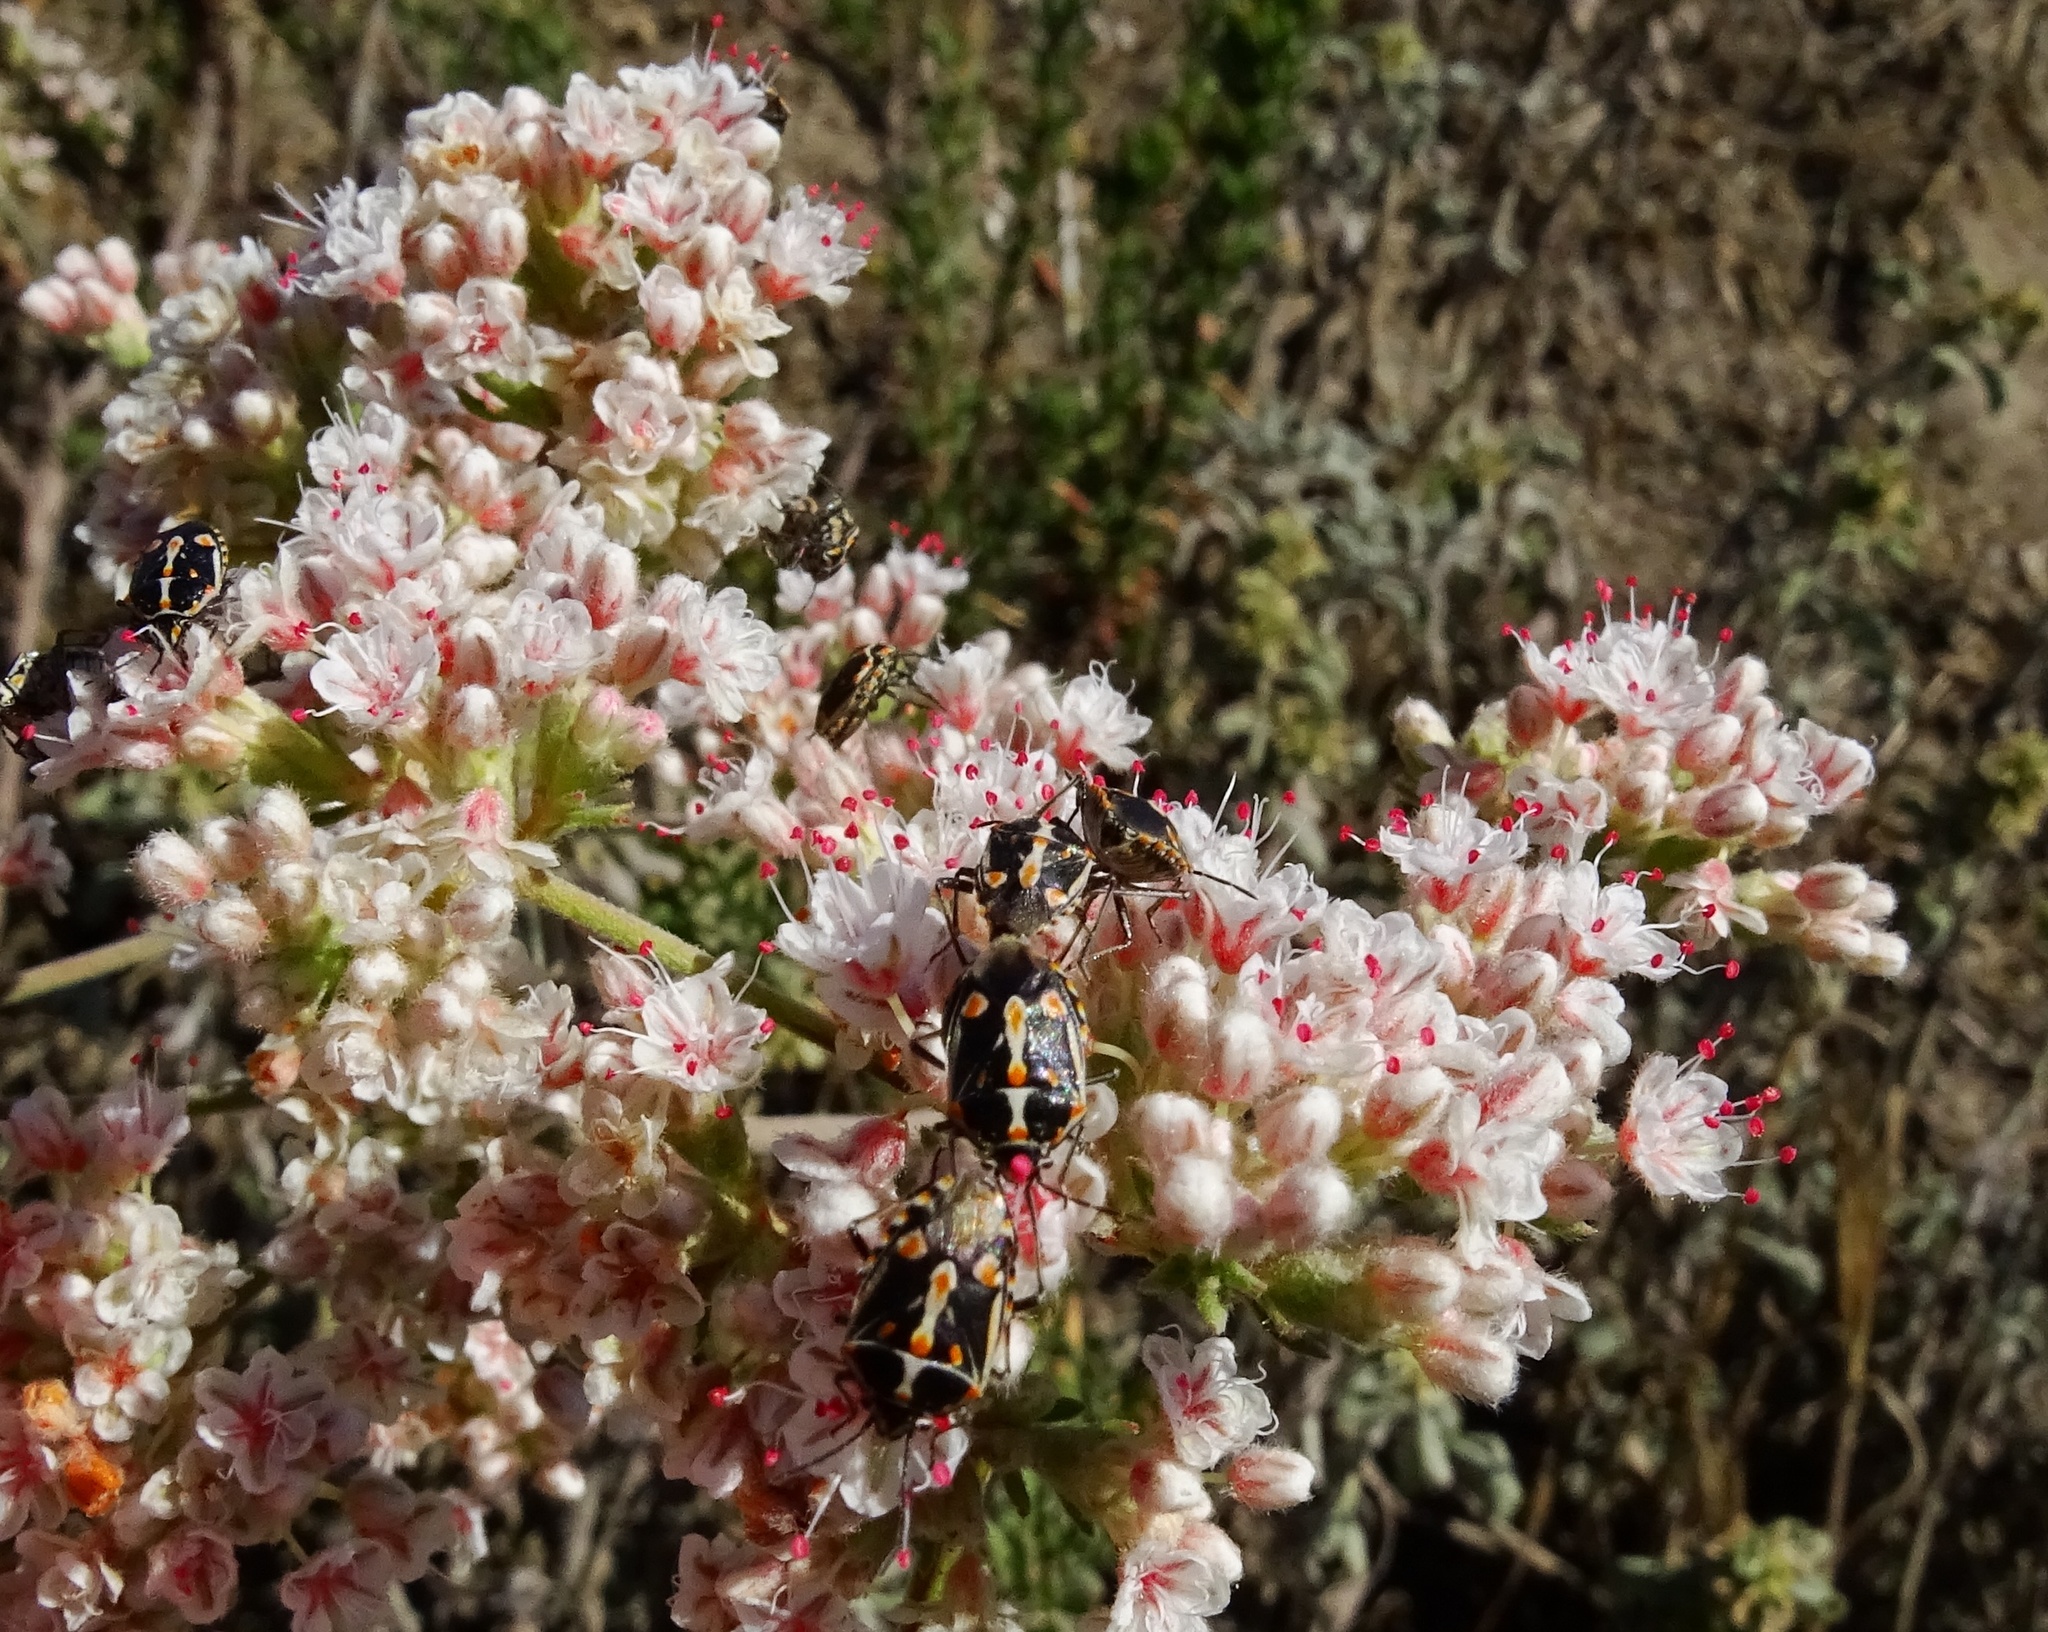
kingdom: Animalia
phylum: Arthropoda
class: Insecta
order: Hemiptera
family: Pentatomidae
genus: Bagrada
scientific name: Bagrada hilaris
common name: Bagrada bug
